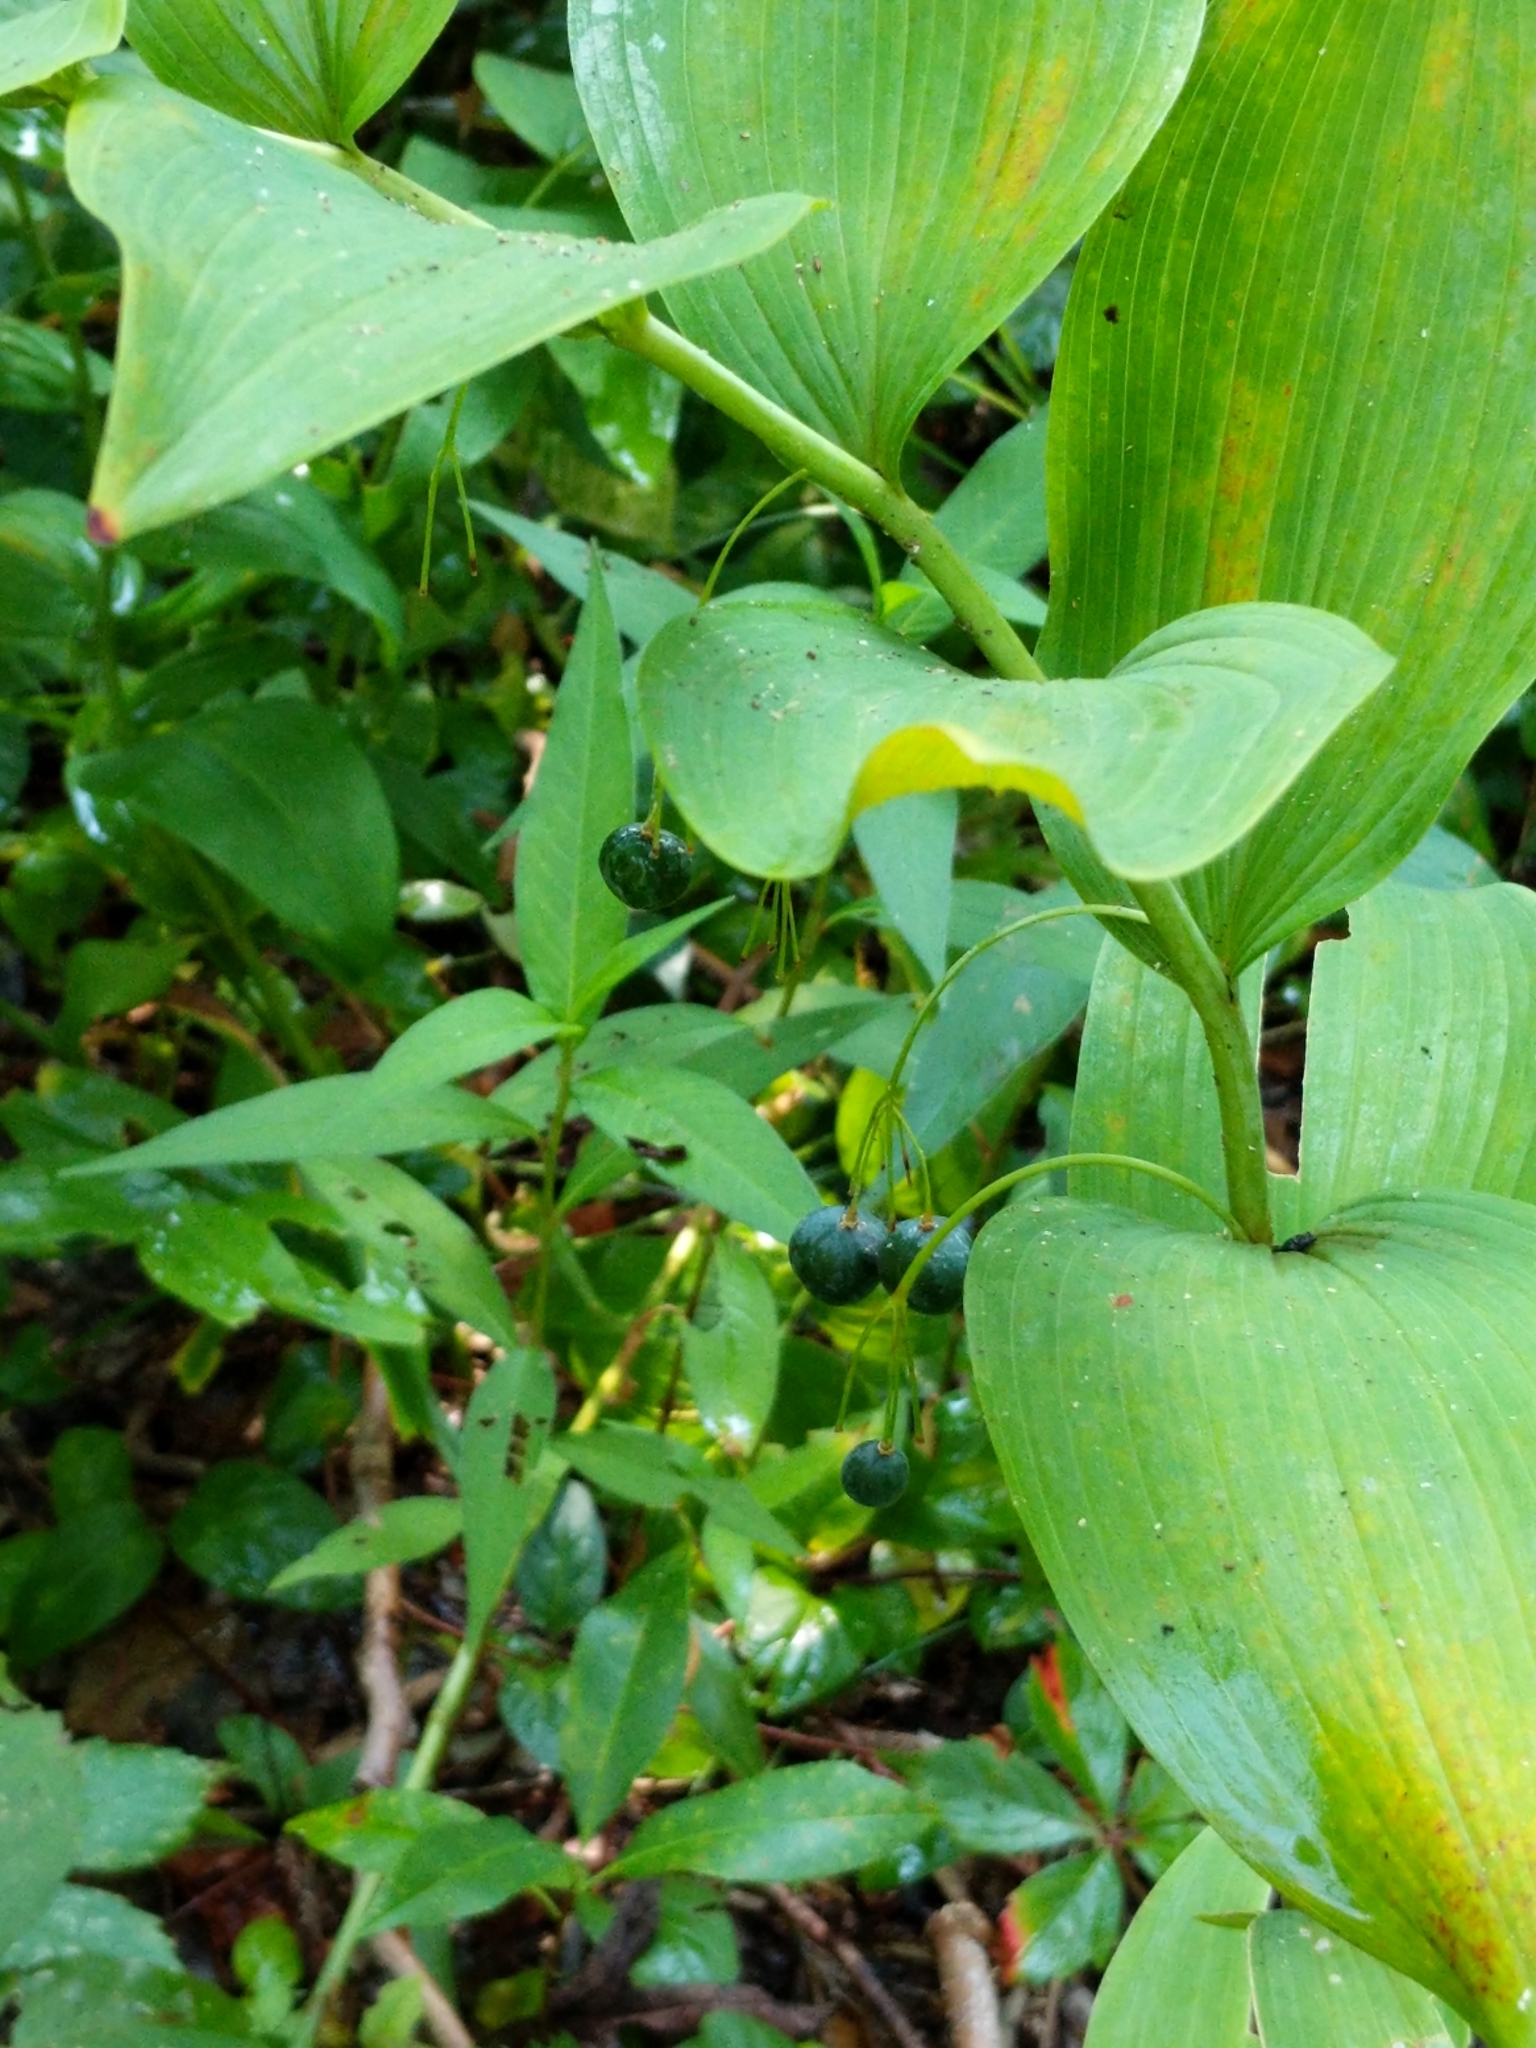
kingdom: Plantae
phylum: Tracheophyta
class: Liliopsida
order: Asparagales
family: Asparagaceae
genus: Polygonatum
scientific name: Polygonatum biflorum
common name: American solomon's-seal
